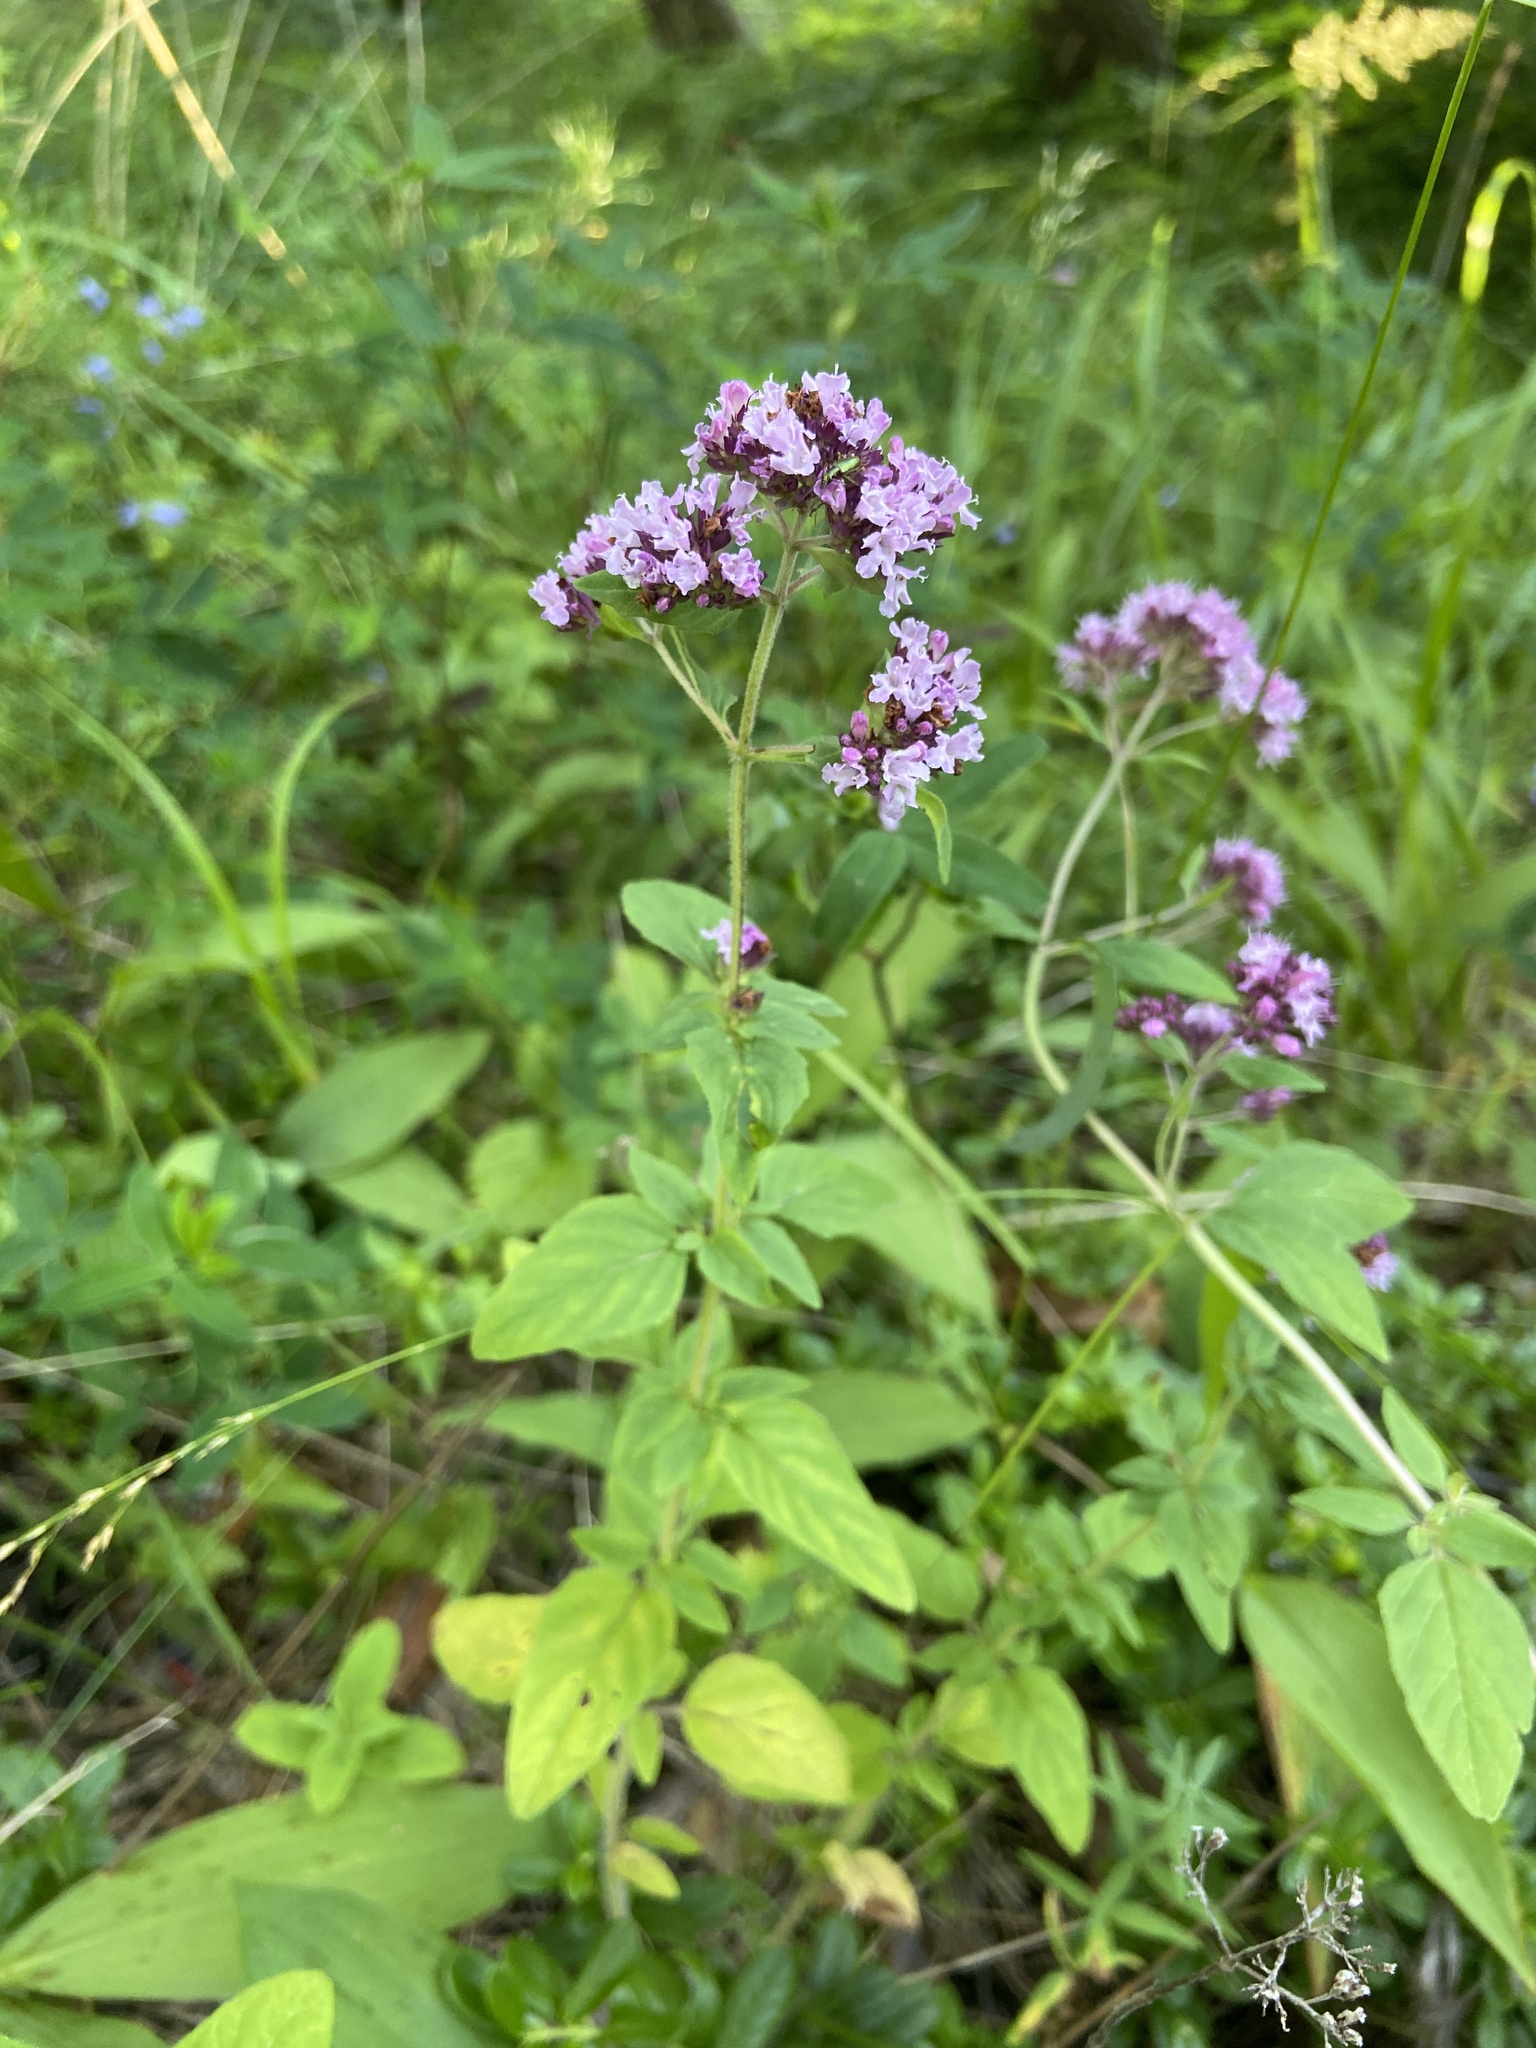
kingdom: Plantae
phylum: Tracheophyta
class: Magnoliopsida
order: Lamiales
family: Lamiaceae
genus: Origanum
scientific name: Origanum vulgare
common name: Wild marjoram
